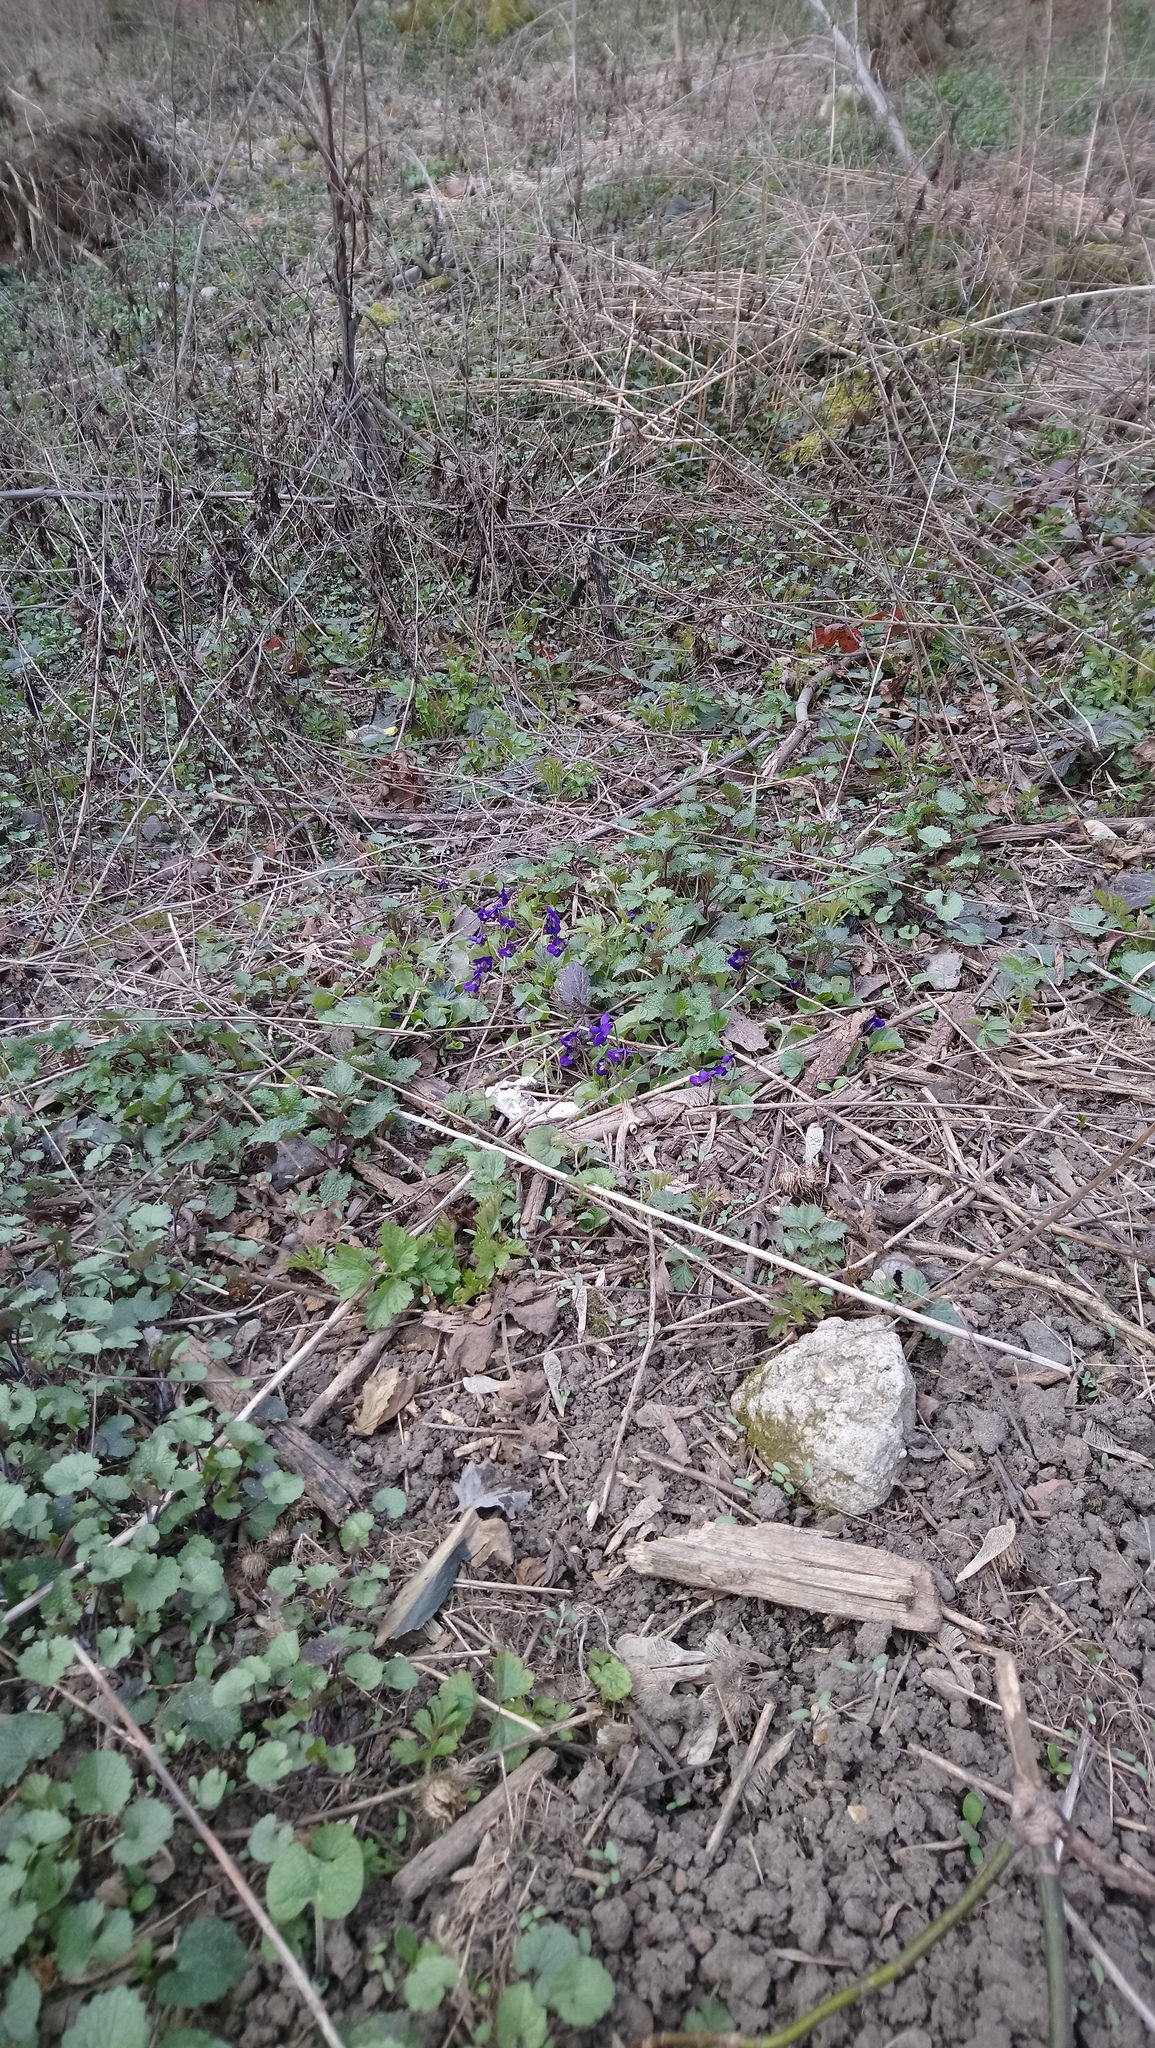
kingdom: Plantae
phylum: Tracheophyta
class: Magnoliopsida
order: Malpighiales
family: Violaceae
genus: Viola
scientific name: Viola odorata
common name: Sweet violet
